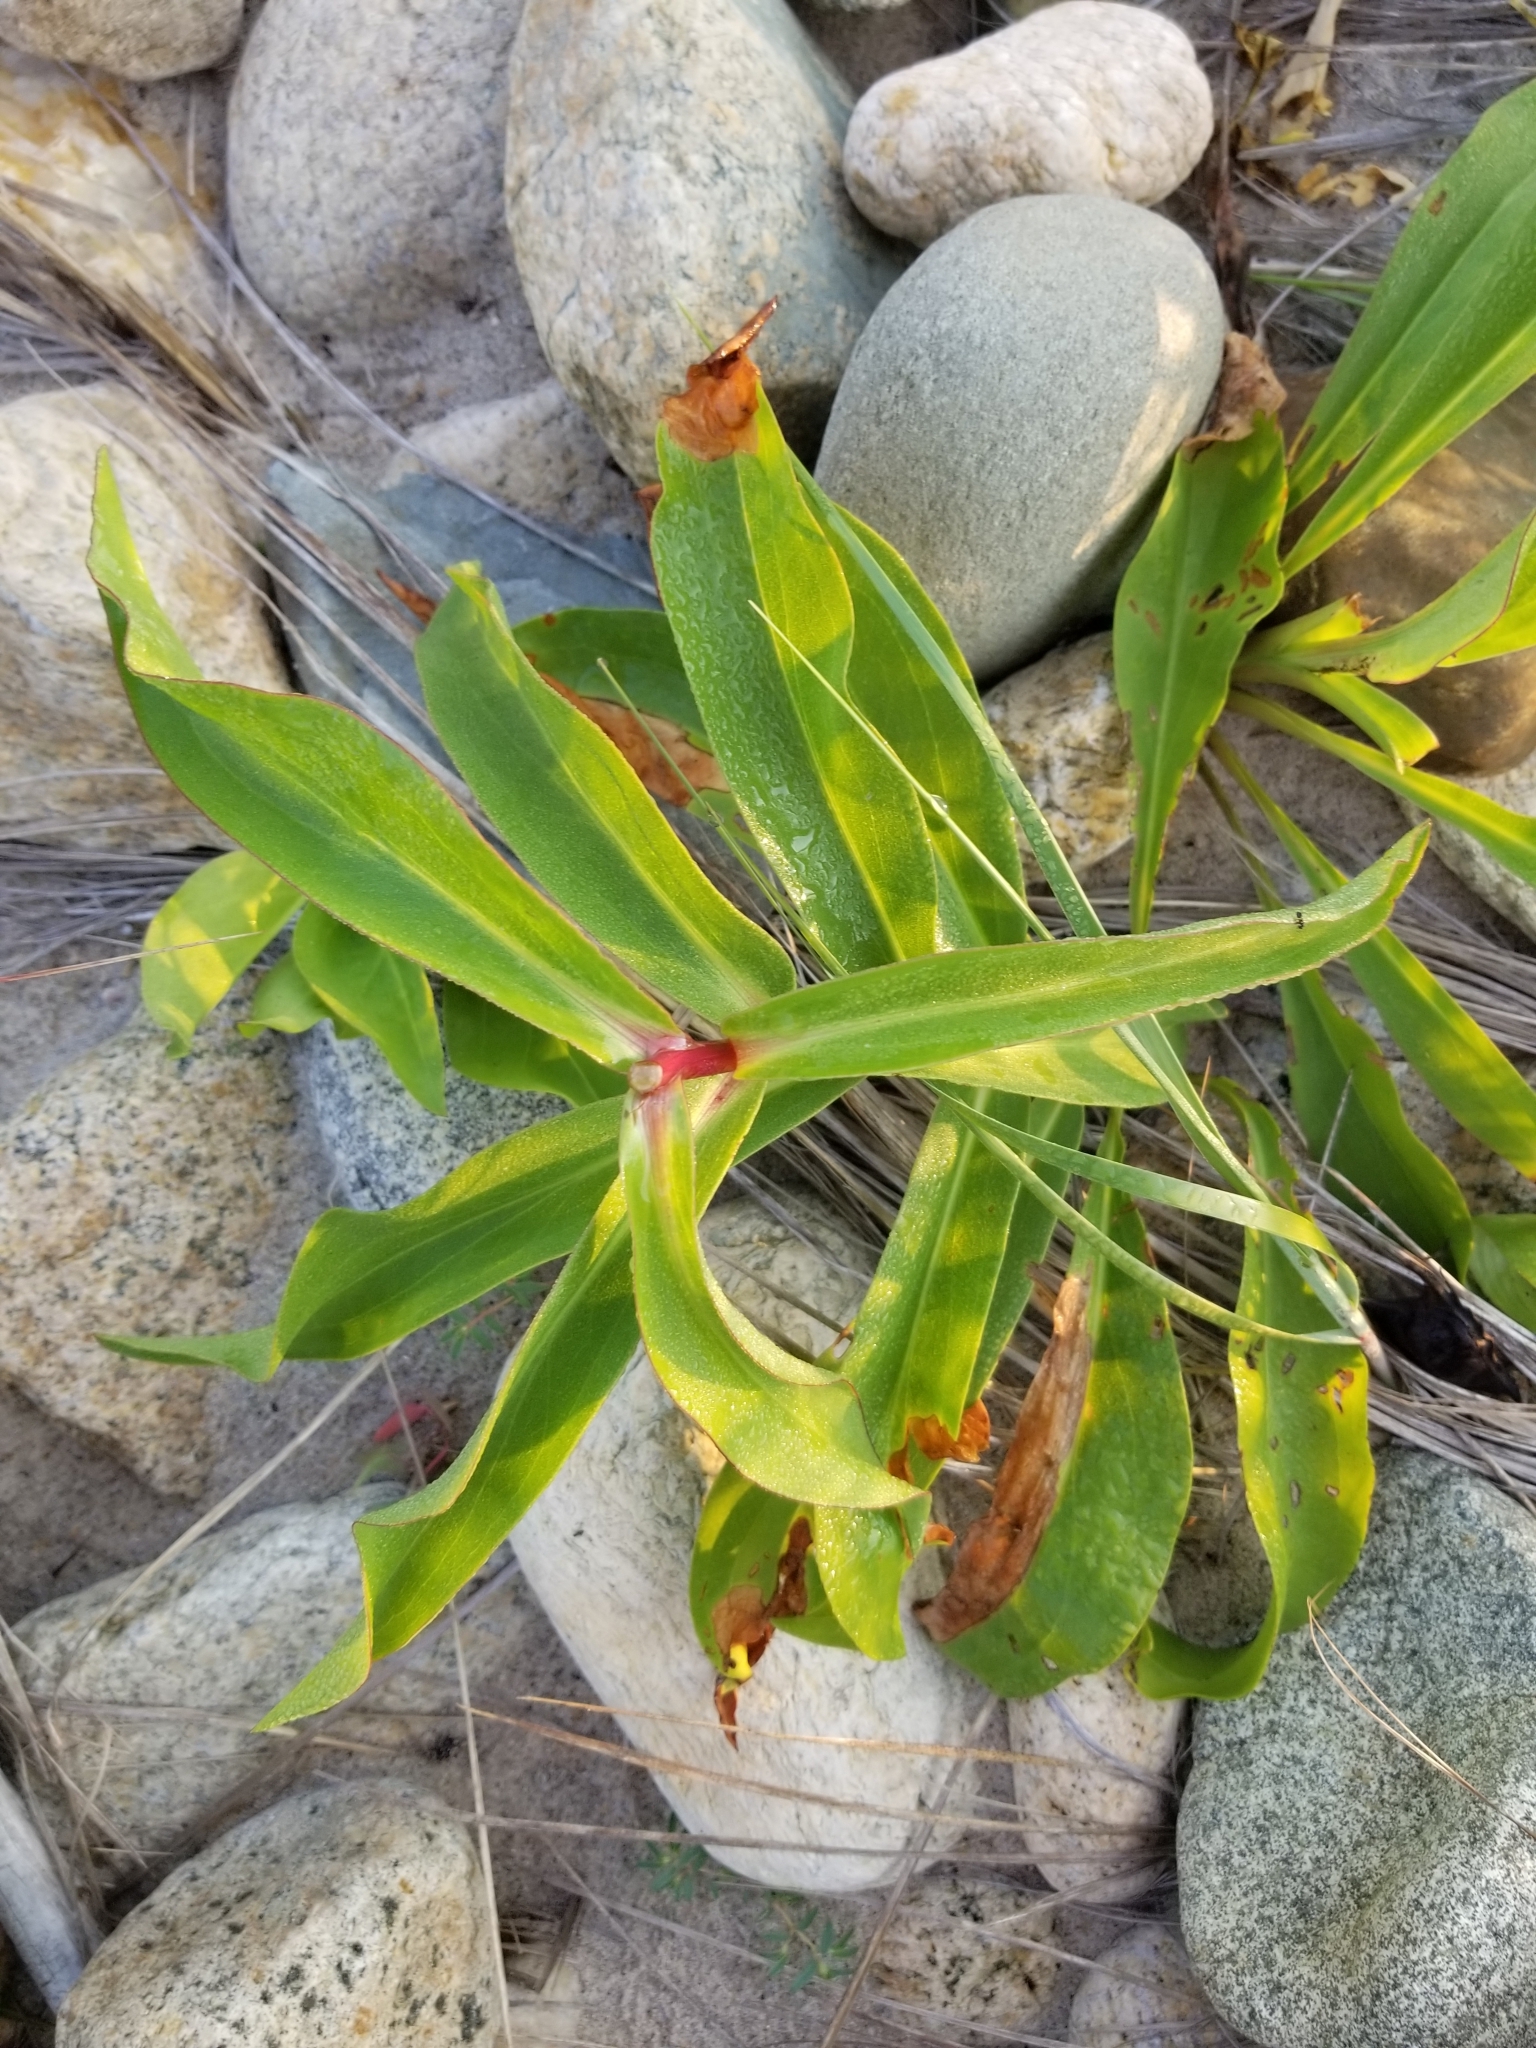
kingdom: Plantae
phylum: Tracheophyta
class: Magnoliopsida
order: Asterales
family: Asteraceae
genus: Solidago
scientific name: Solidago sempervirens
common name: Salt-marsh goldenrod
